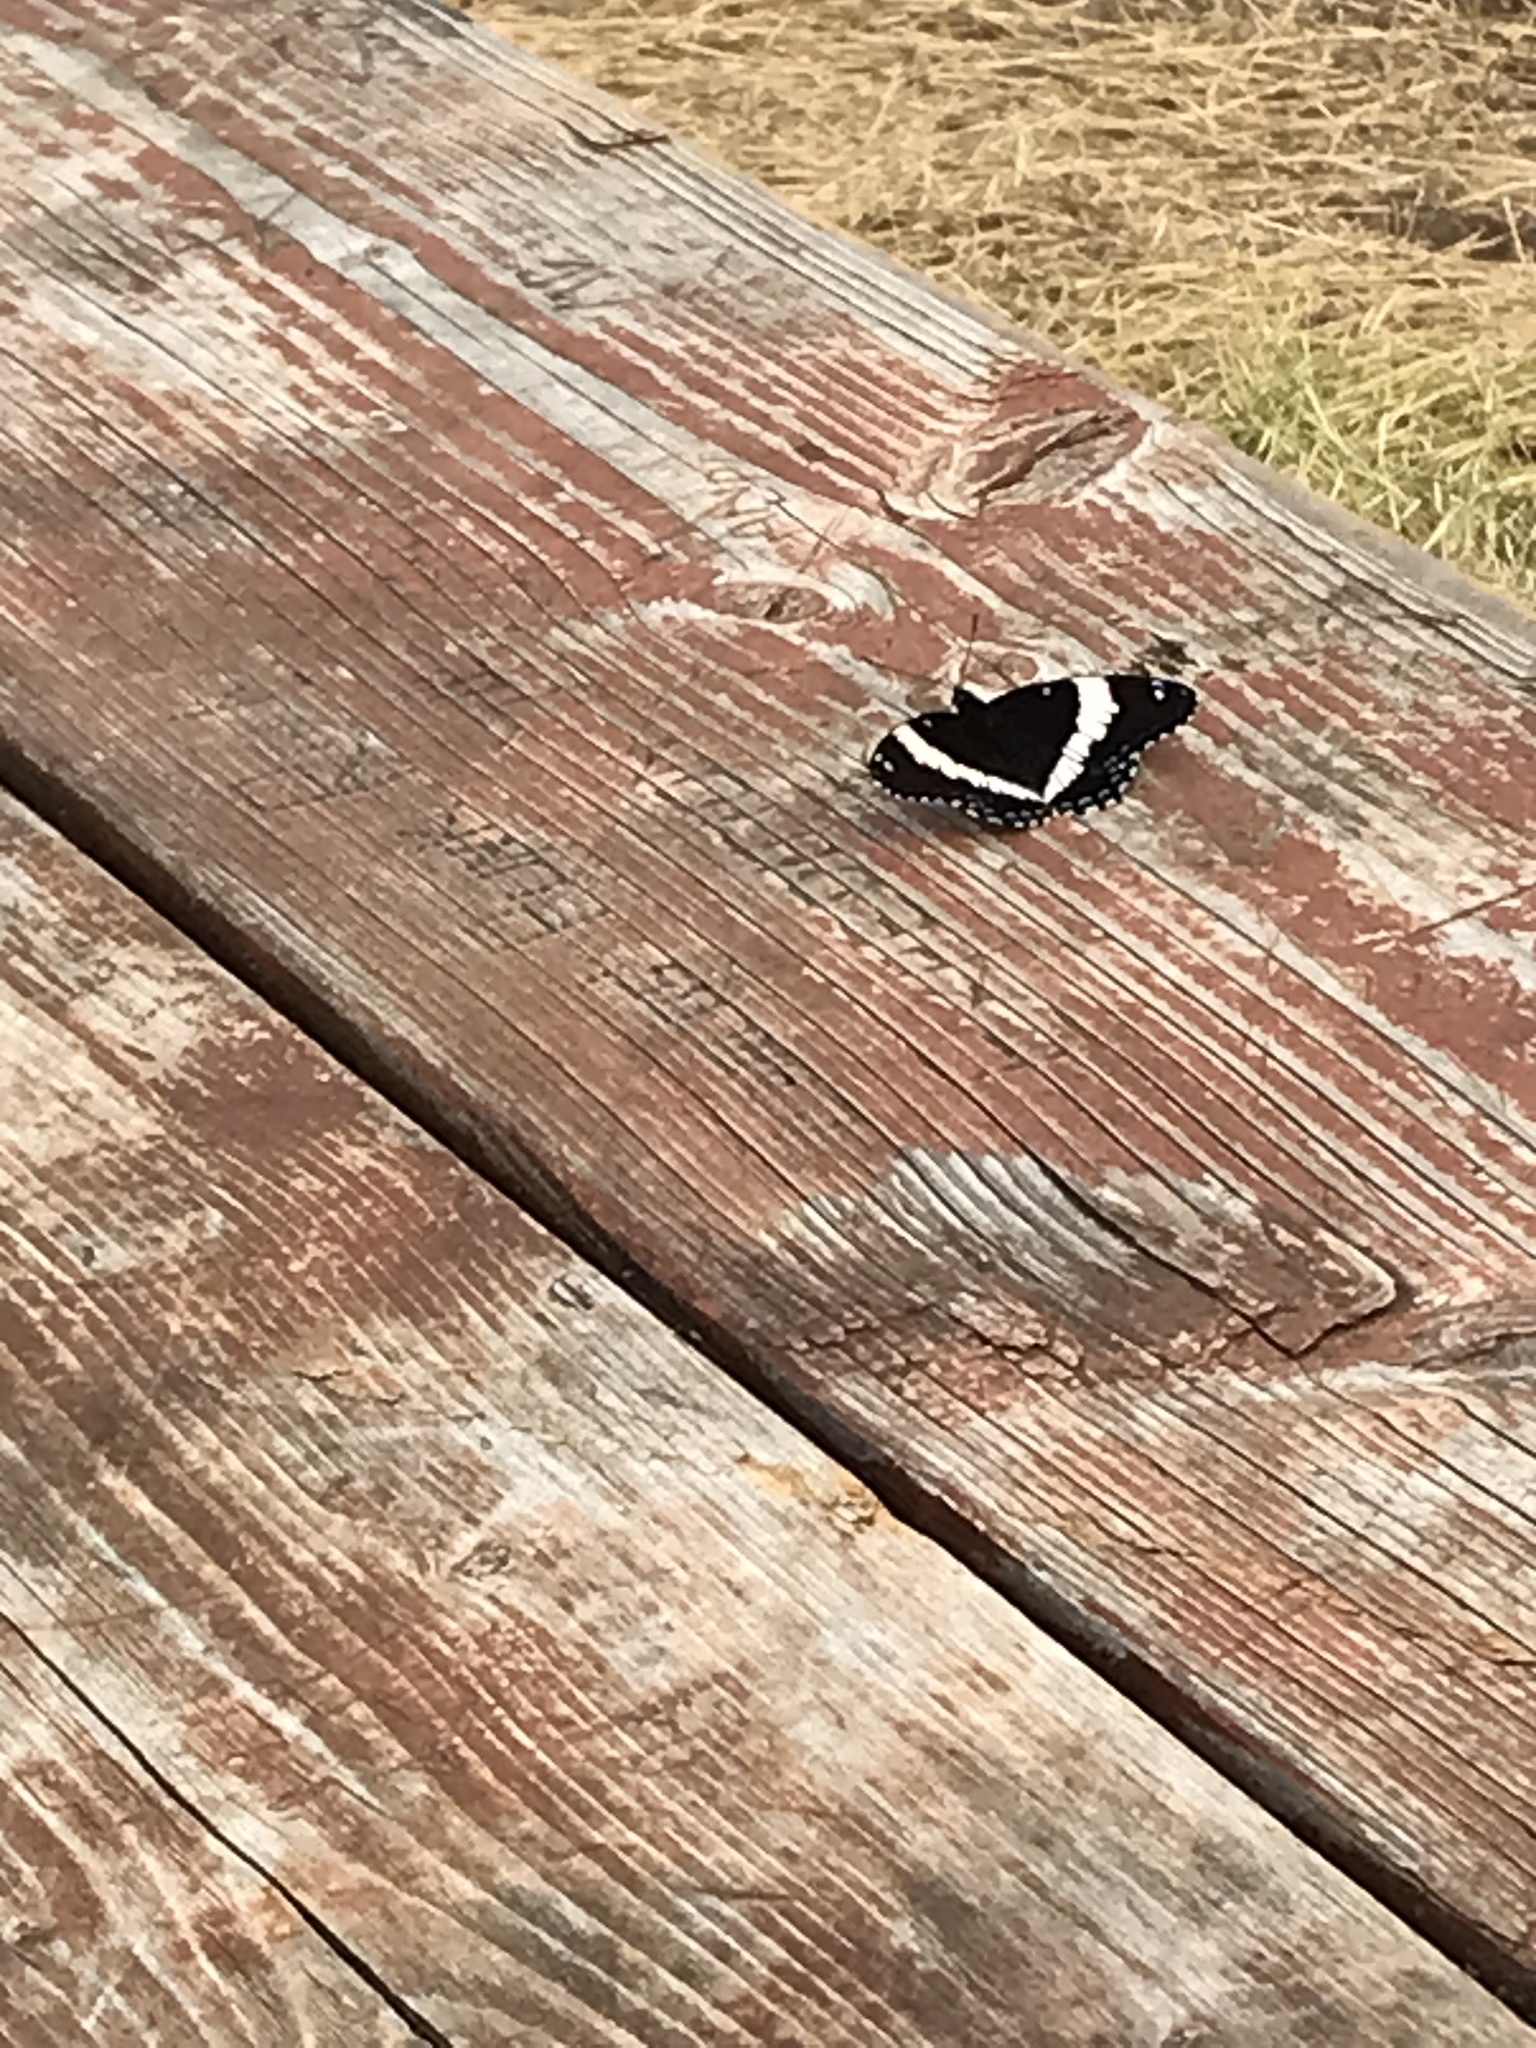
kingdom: Animalia
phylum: Arthropoda
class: Insecta
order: Lepidoptera
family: Nymphalidae
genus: Limenitis
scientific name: Limenitis arthemis
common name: Red-spotted admiral
